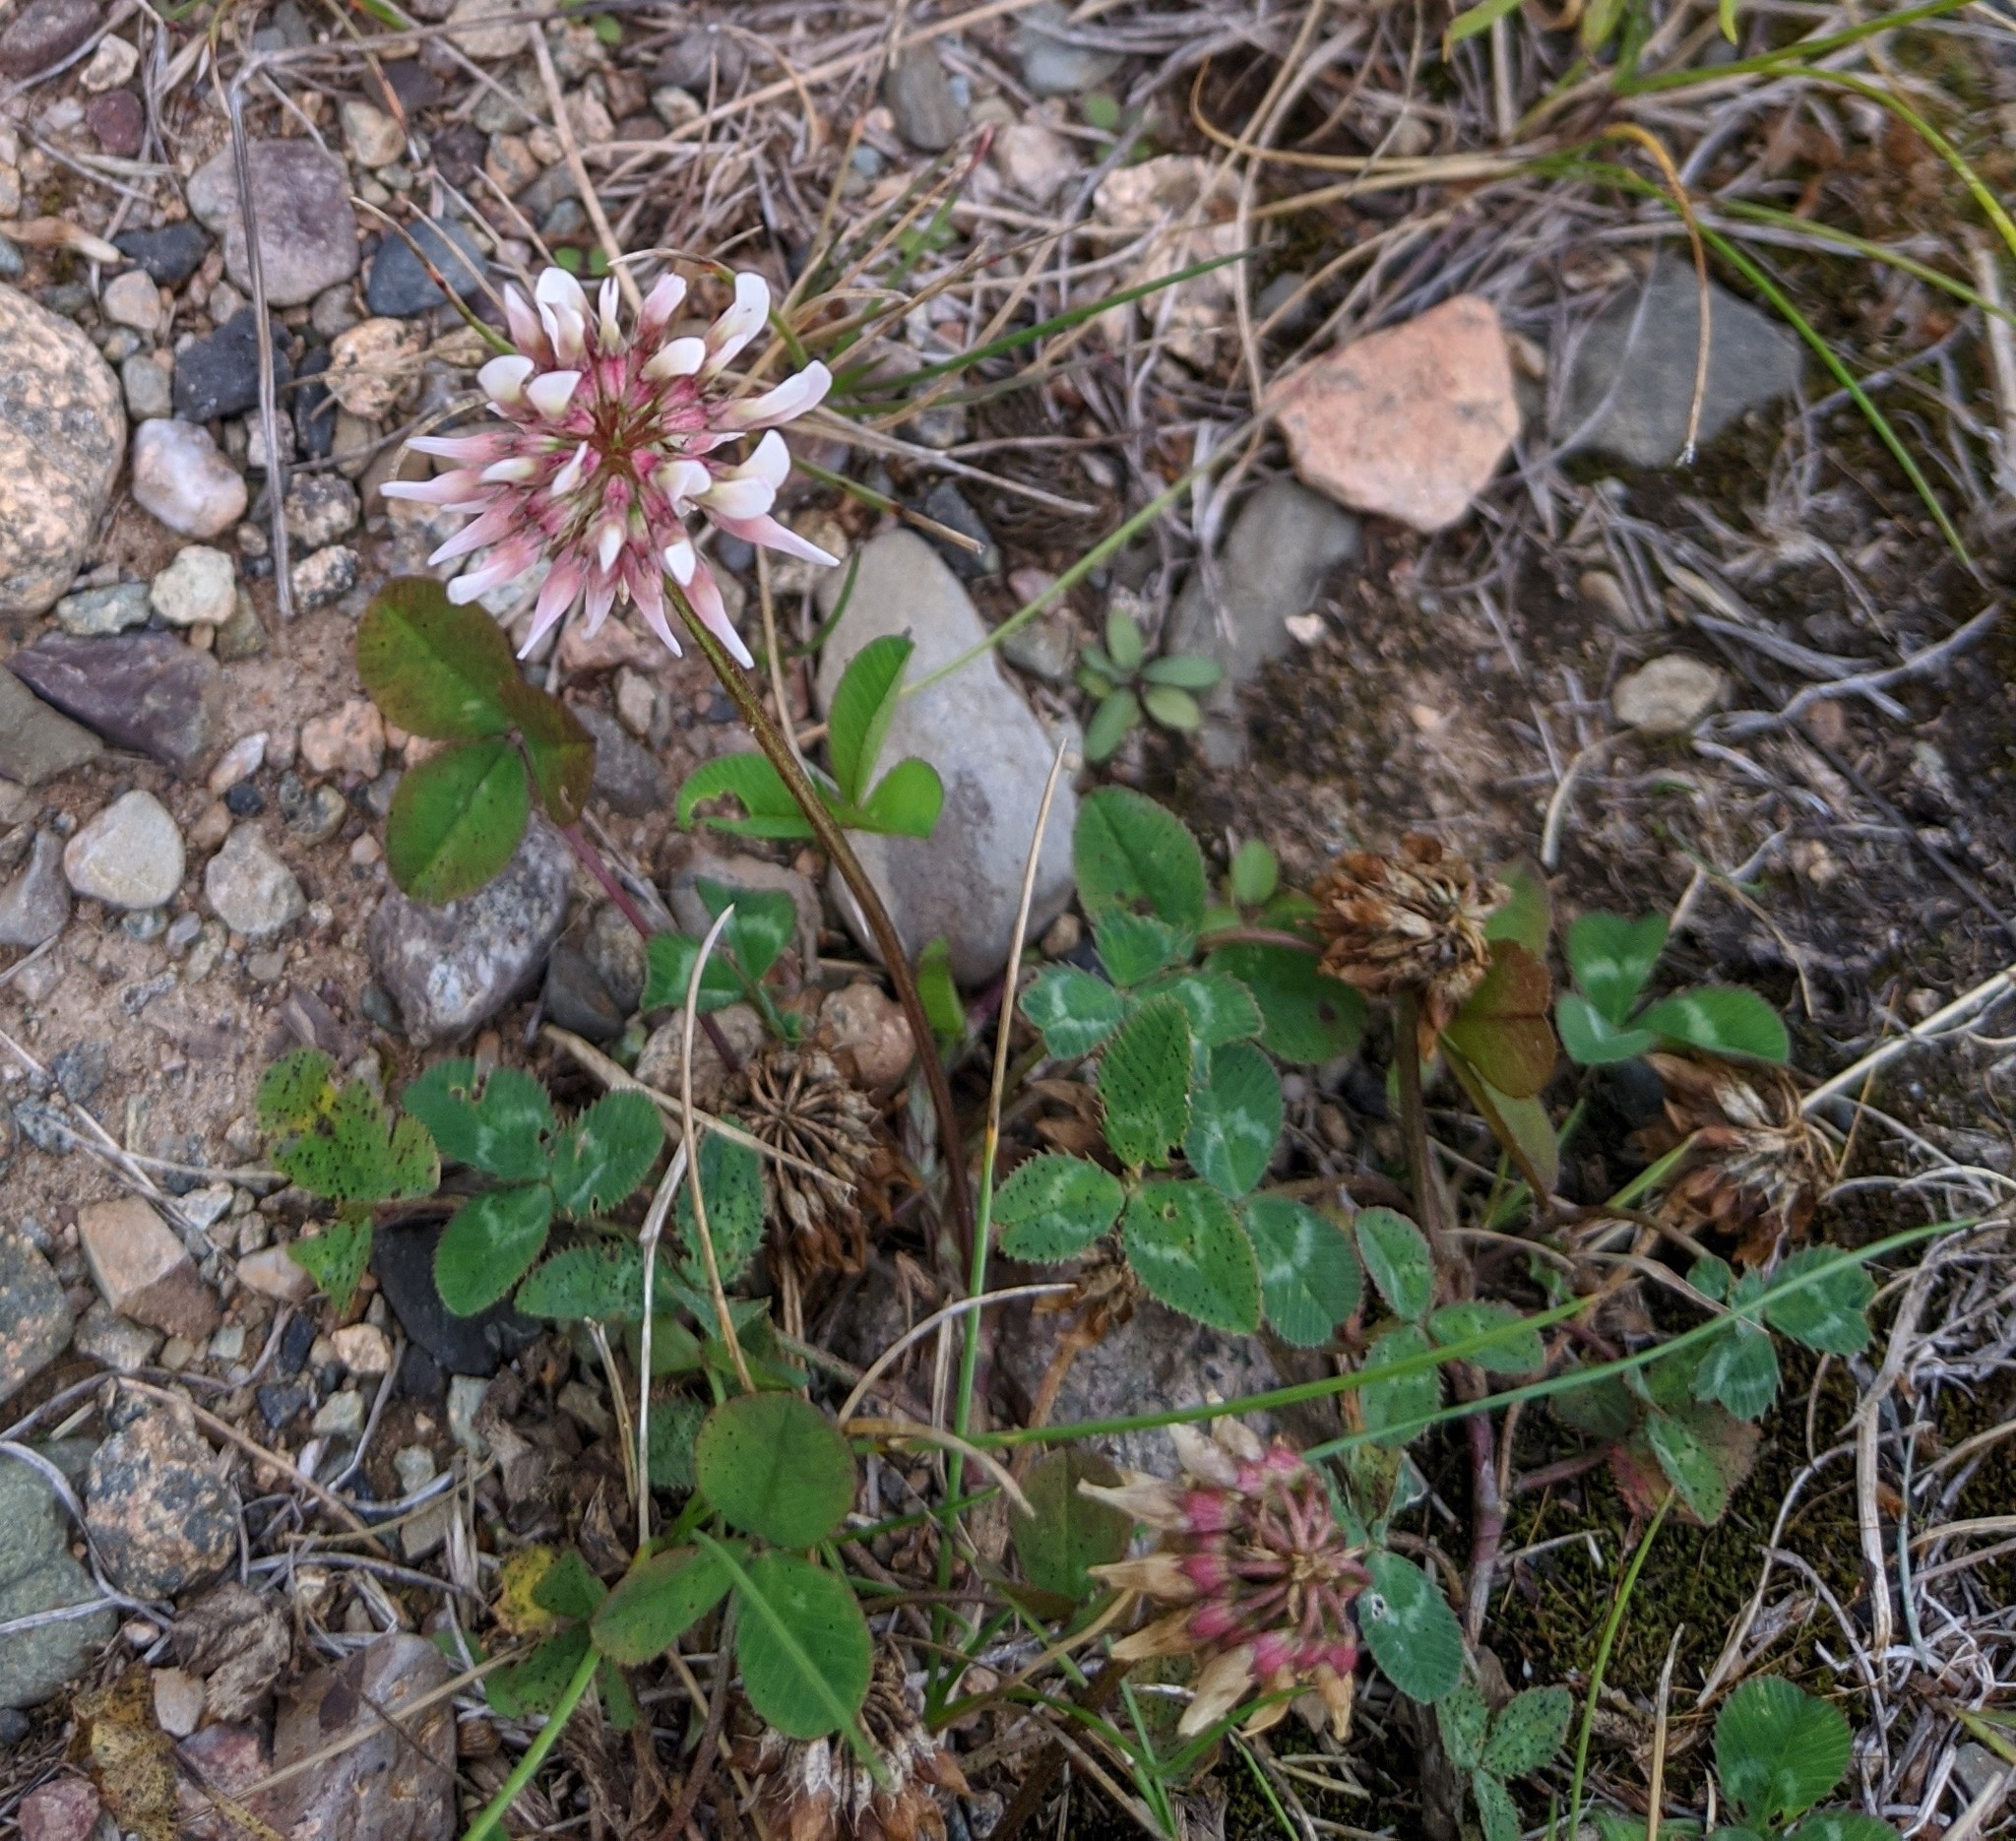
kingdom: Plantae
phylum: Tracheophyta
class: Magnoliopsida
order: Fabales
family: Fabaceae
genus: Trifolium
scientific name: Trifolium repens
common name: White clover
